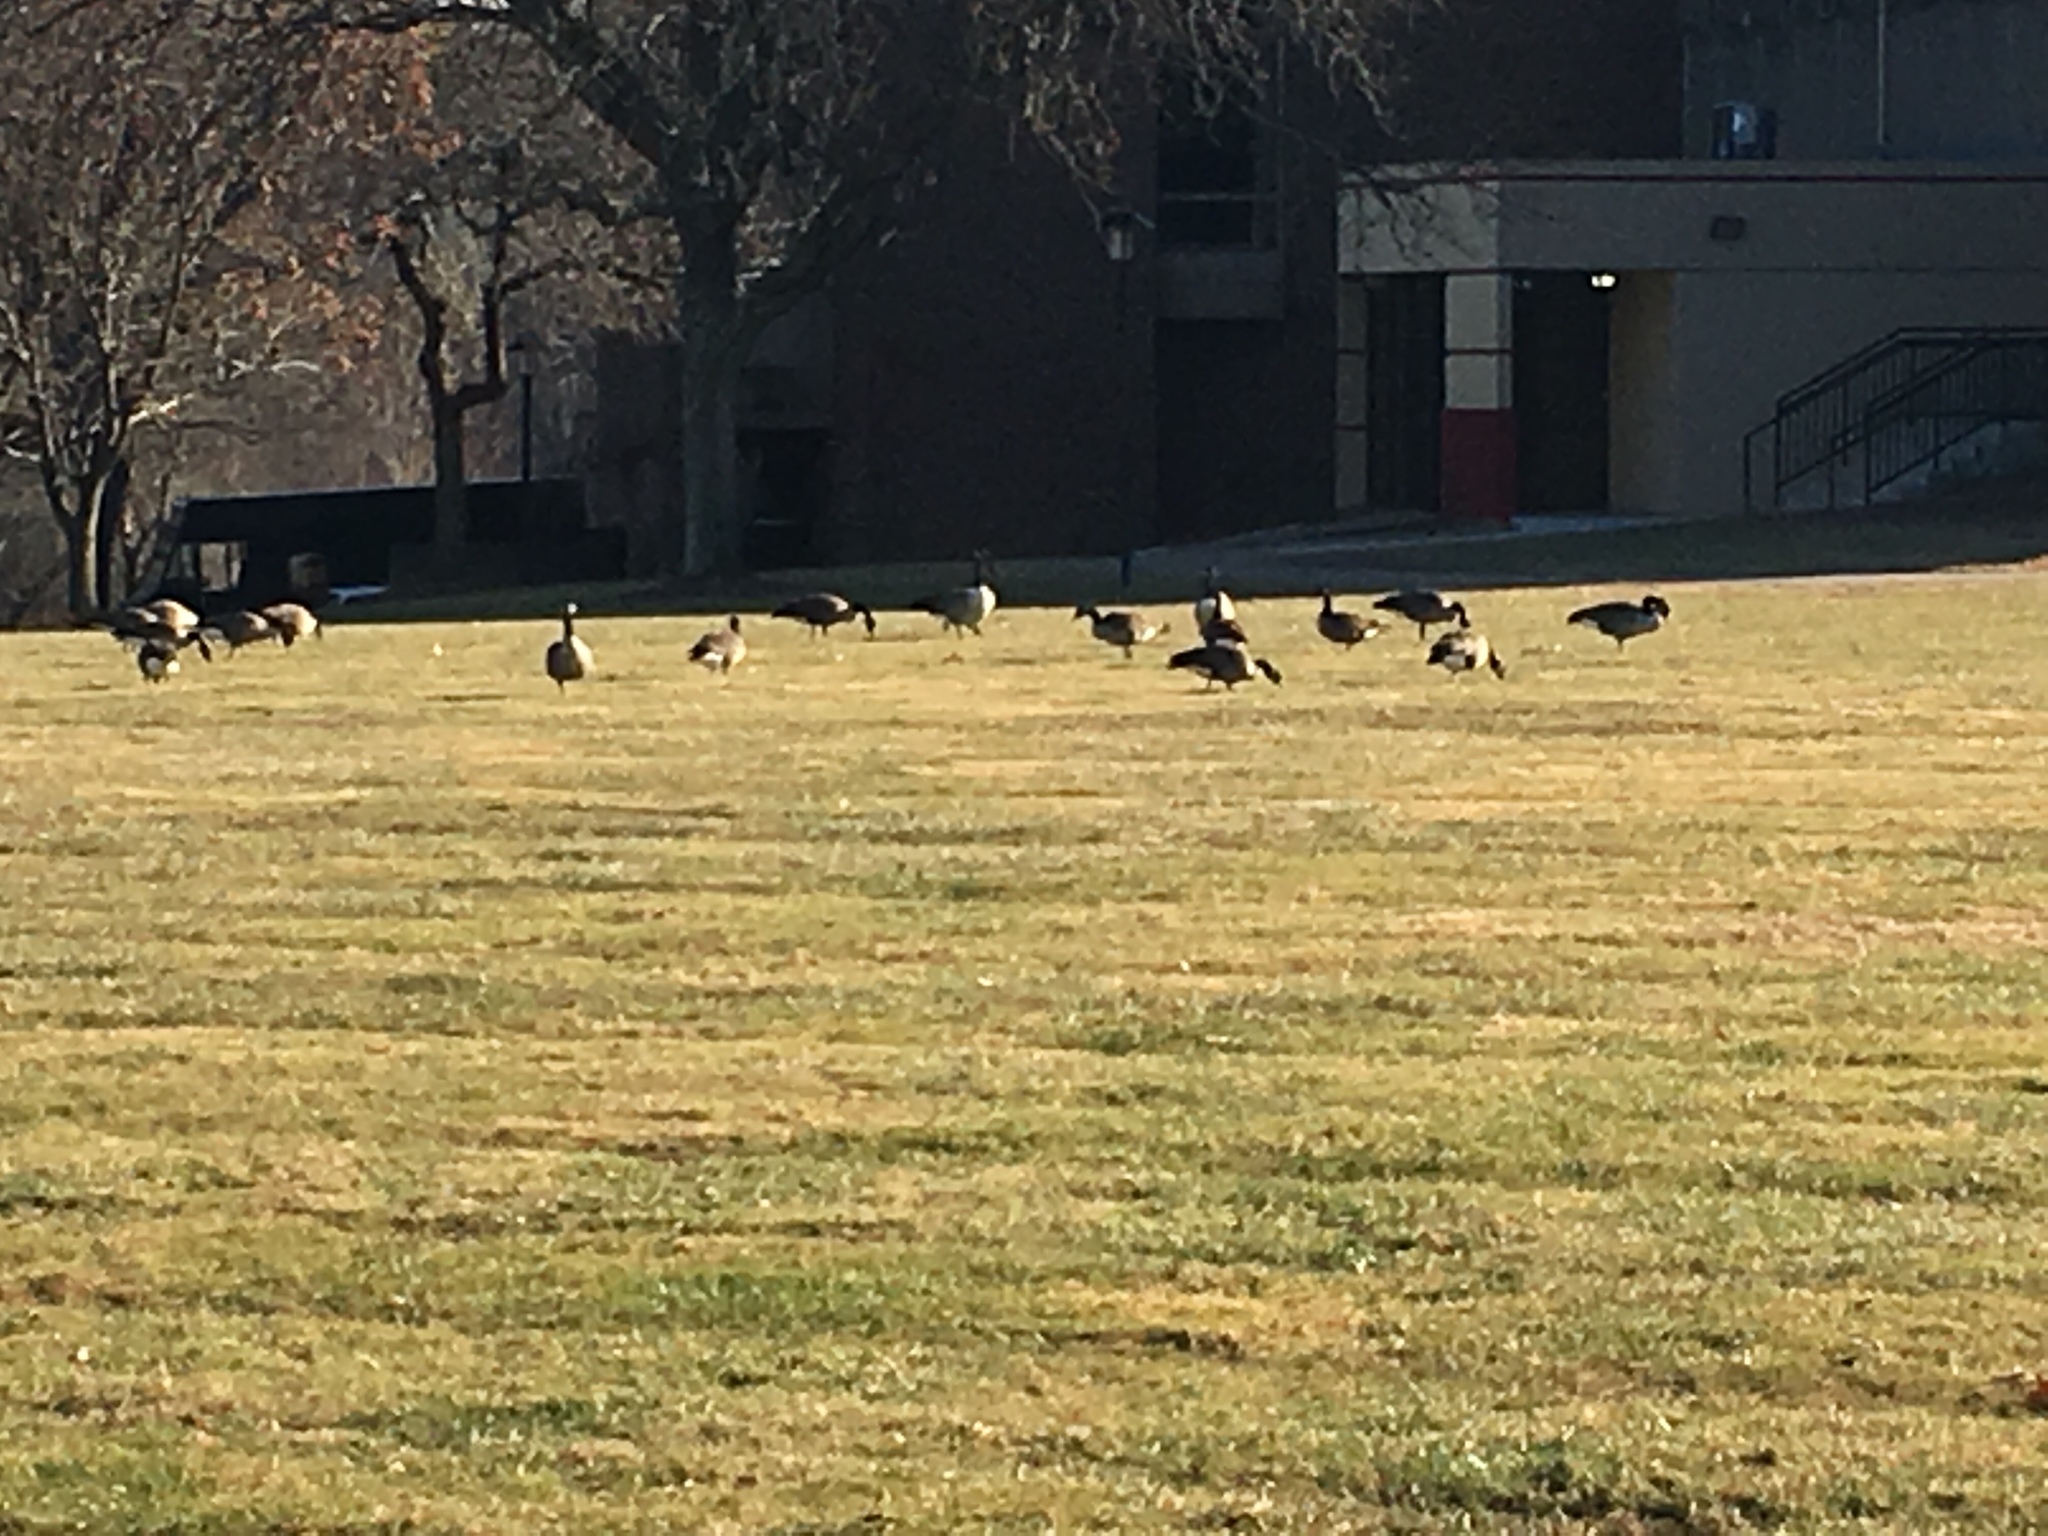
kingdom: Animalia
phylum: Chordata
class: Aves
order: Anseriformes
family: Anatidae
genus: Branta
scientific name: Branta canadensis
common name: Canada goose
